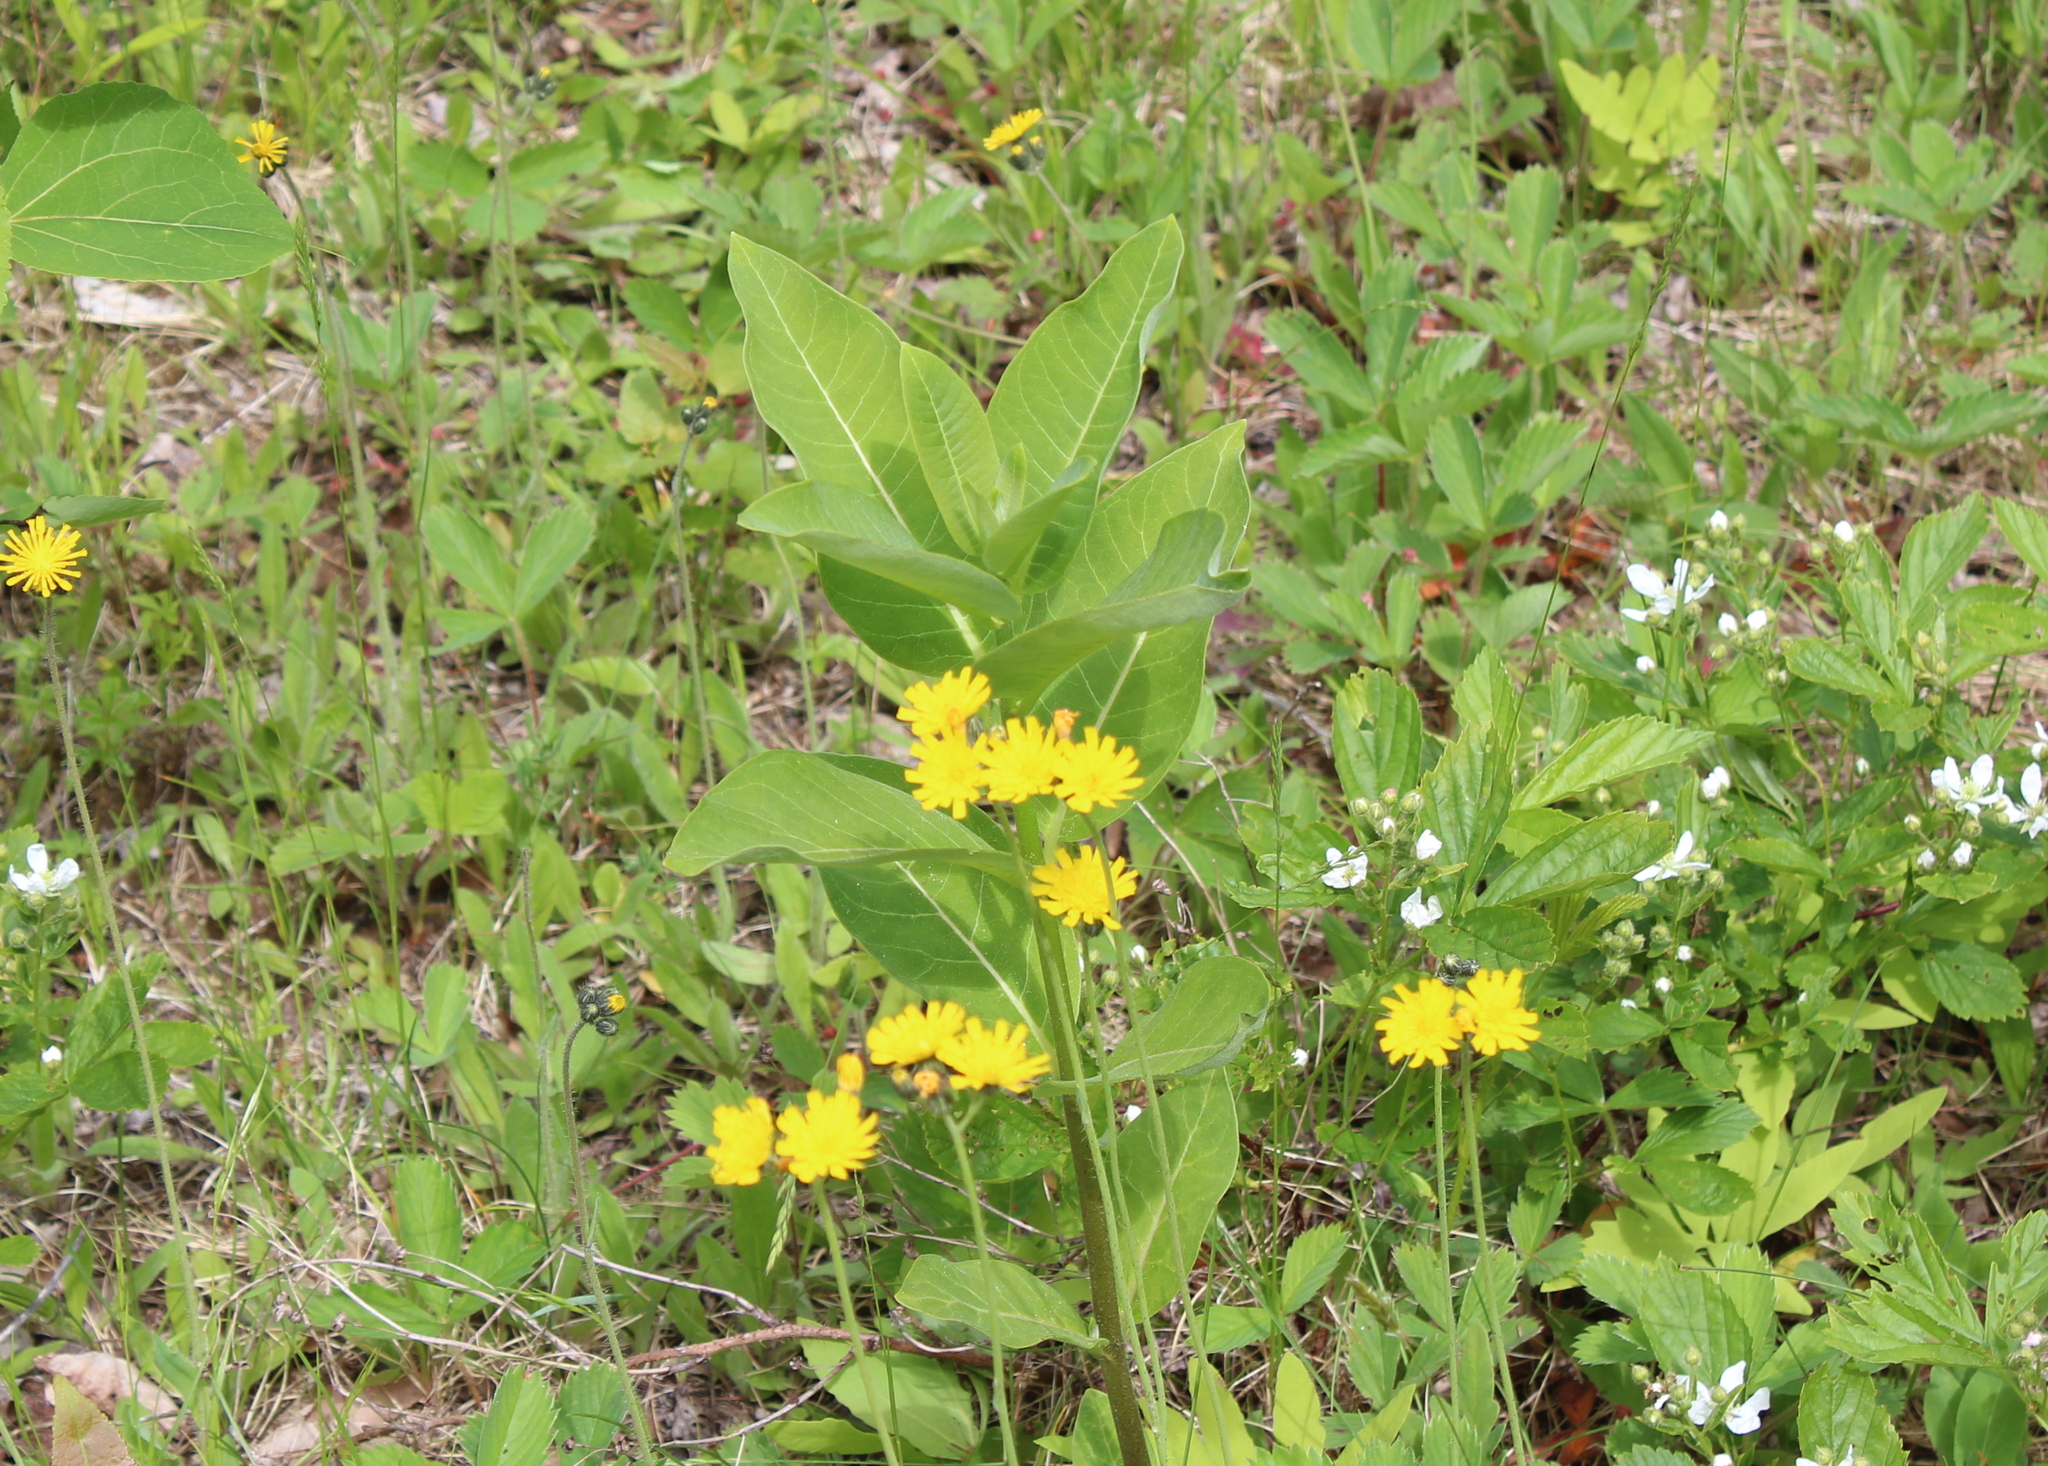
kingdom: Plantae
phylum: Tracheophyta
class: Magnoliopsida
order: Gentianales
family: Apocynaceae
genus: Asclepias
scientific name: Asclepias syriaca
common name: Common milkweed
